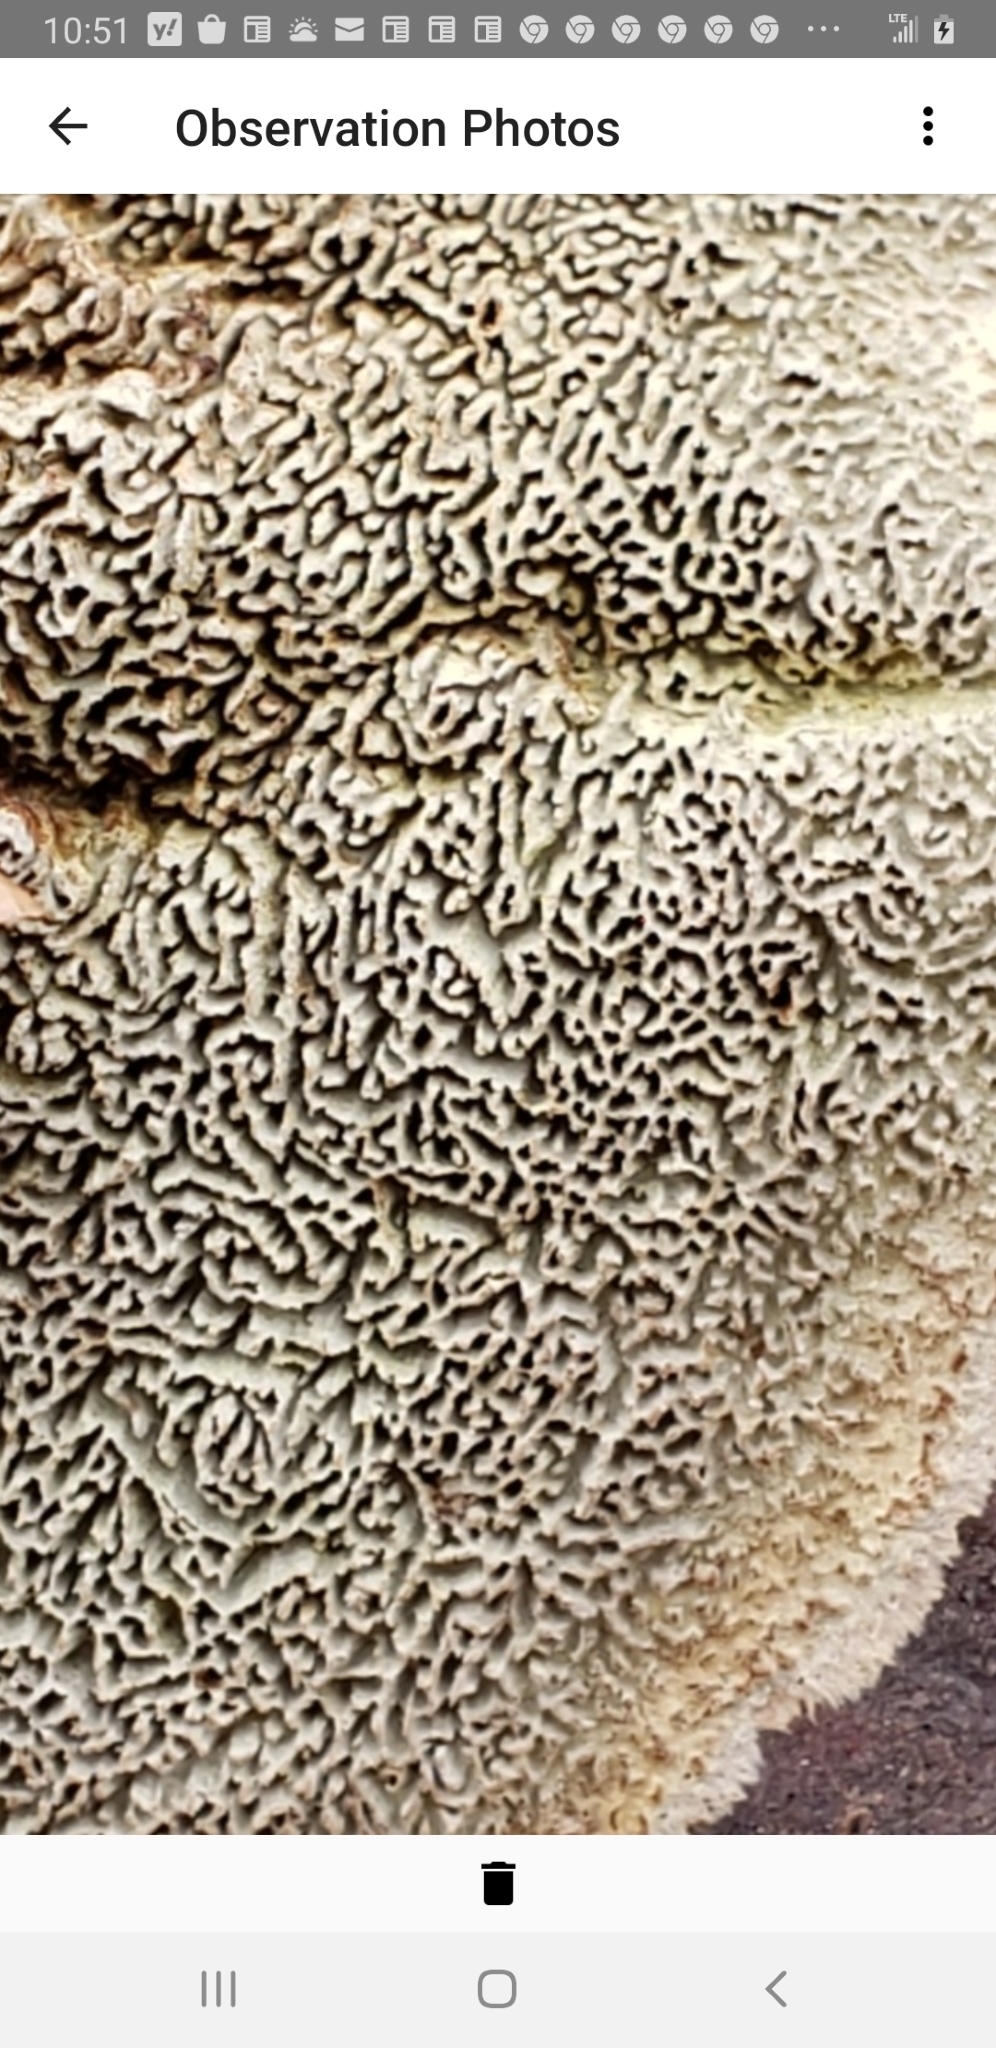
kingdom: Fungi
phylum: Basidiomycota
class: Agaricomycetes
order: Polyporales
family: Cerrenaceae
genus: Cerrena
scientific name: Cerrena unicolor
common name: Mossy maze polypore
